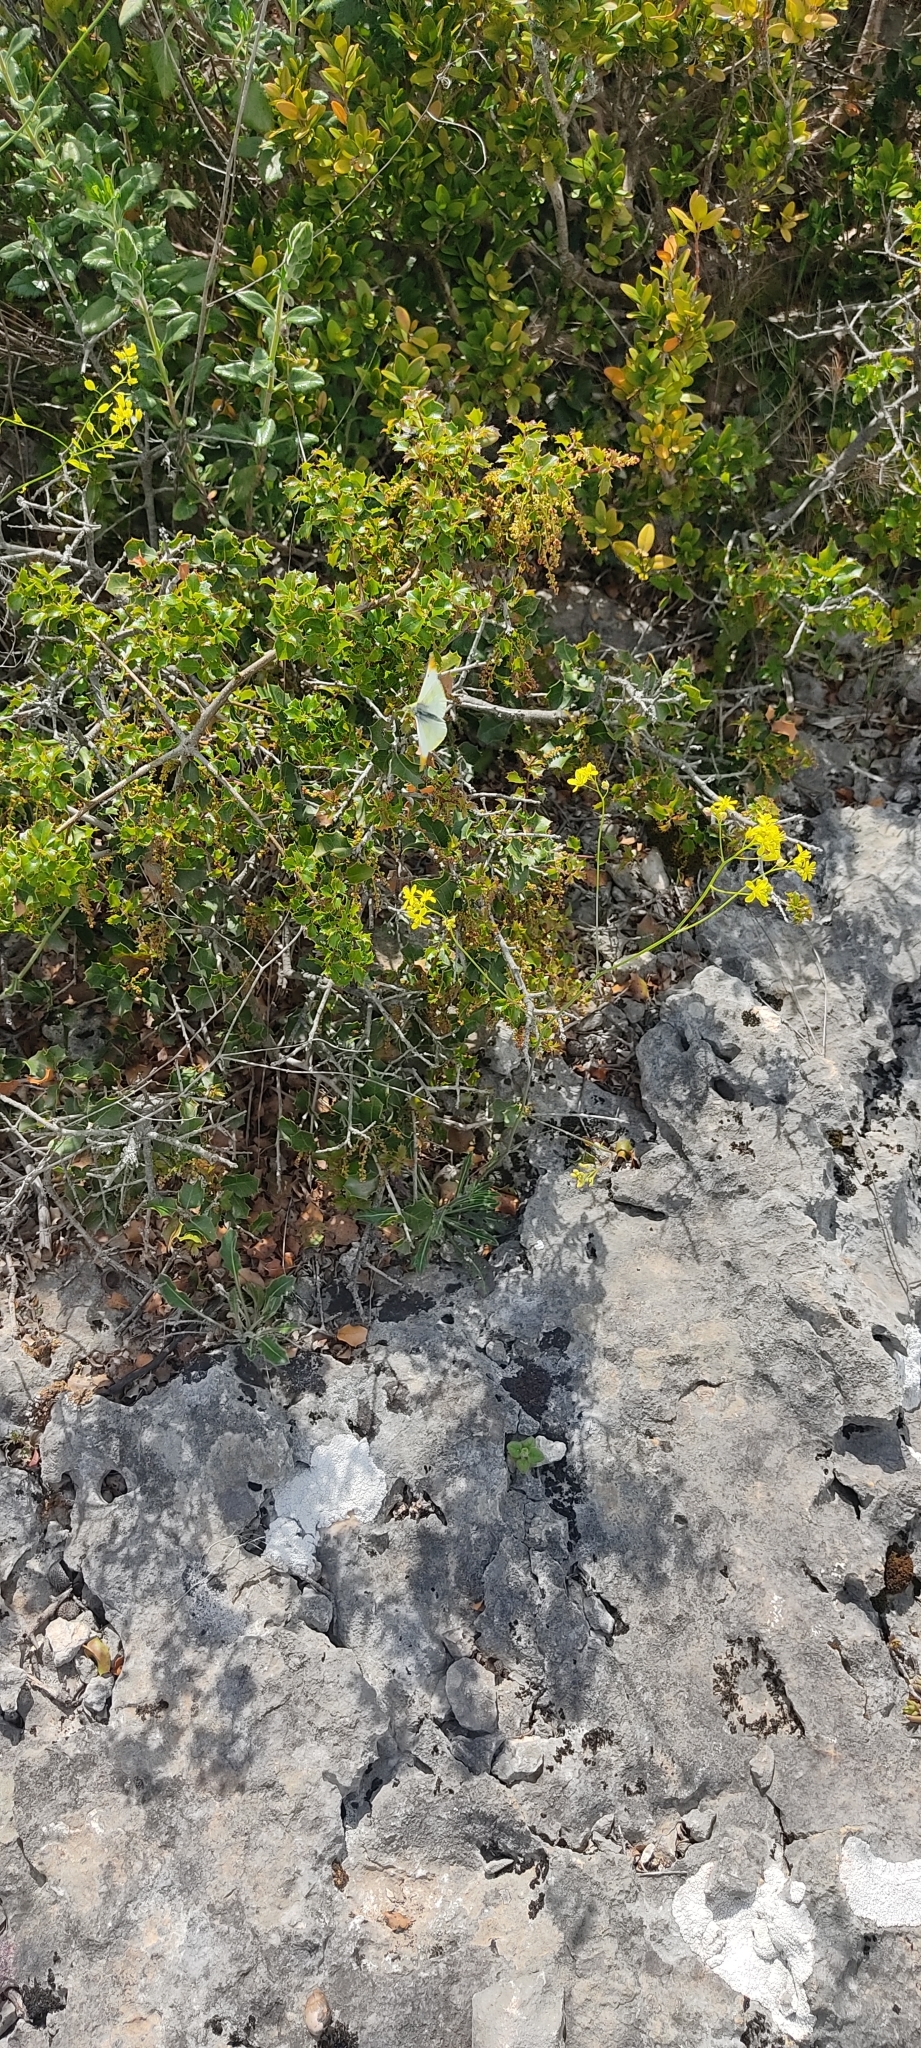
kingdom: Animalia
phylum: Arthropoda
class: Insecta
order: Lepidoptera
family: Pieridae
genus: Anthocharis
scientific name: Anthocharis euphenoides
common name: Provence orange-tip
